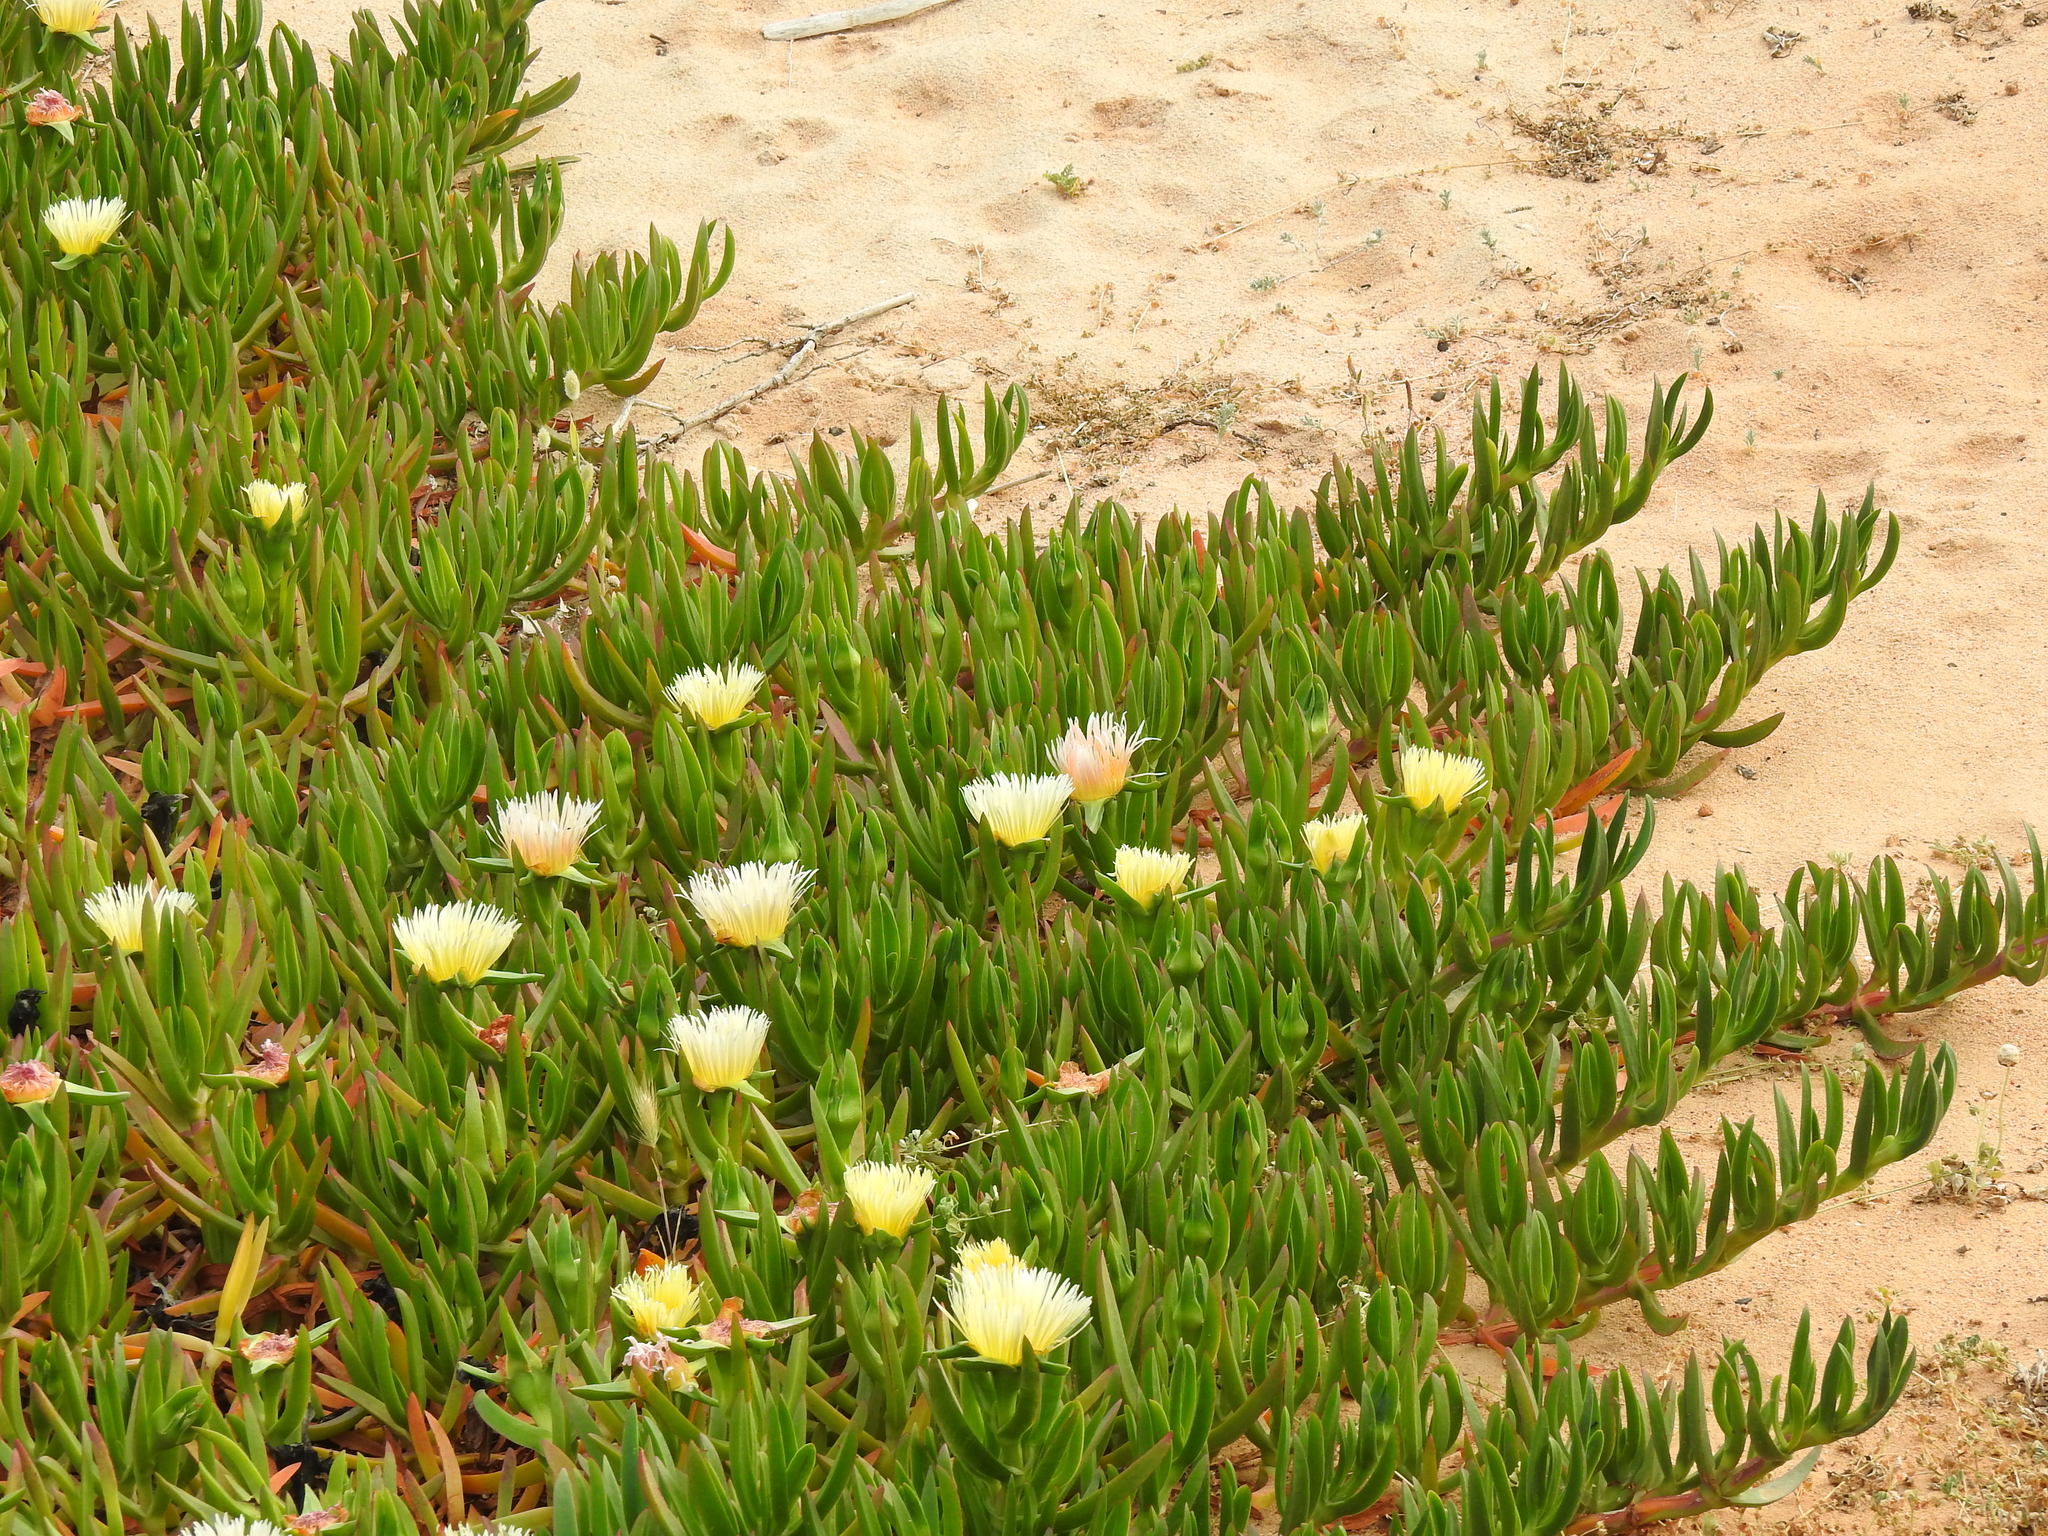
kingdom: Plantae
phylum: Tracheophyta
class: Magnoliopsida
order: Caryophyllales
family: Aizoaceae
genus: Carpobrotus
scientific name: Carpobrotus edulis
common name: Hottentot-fig
